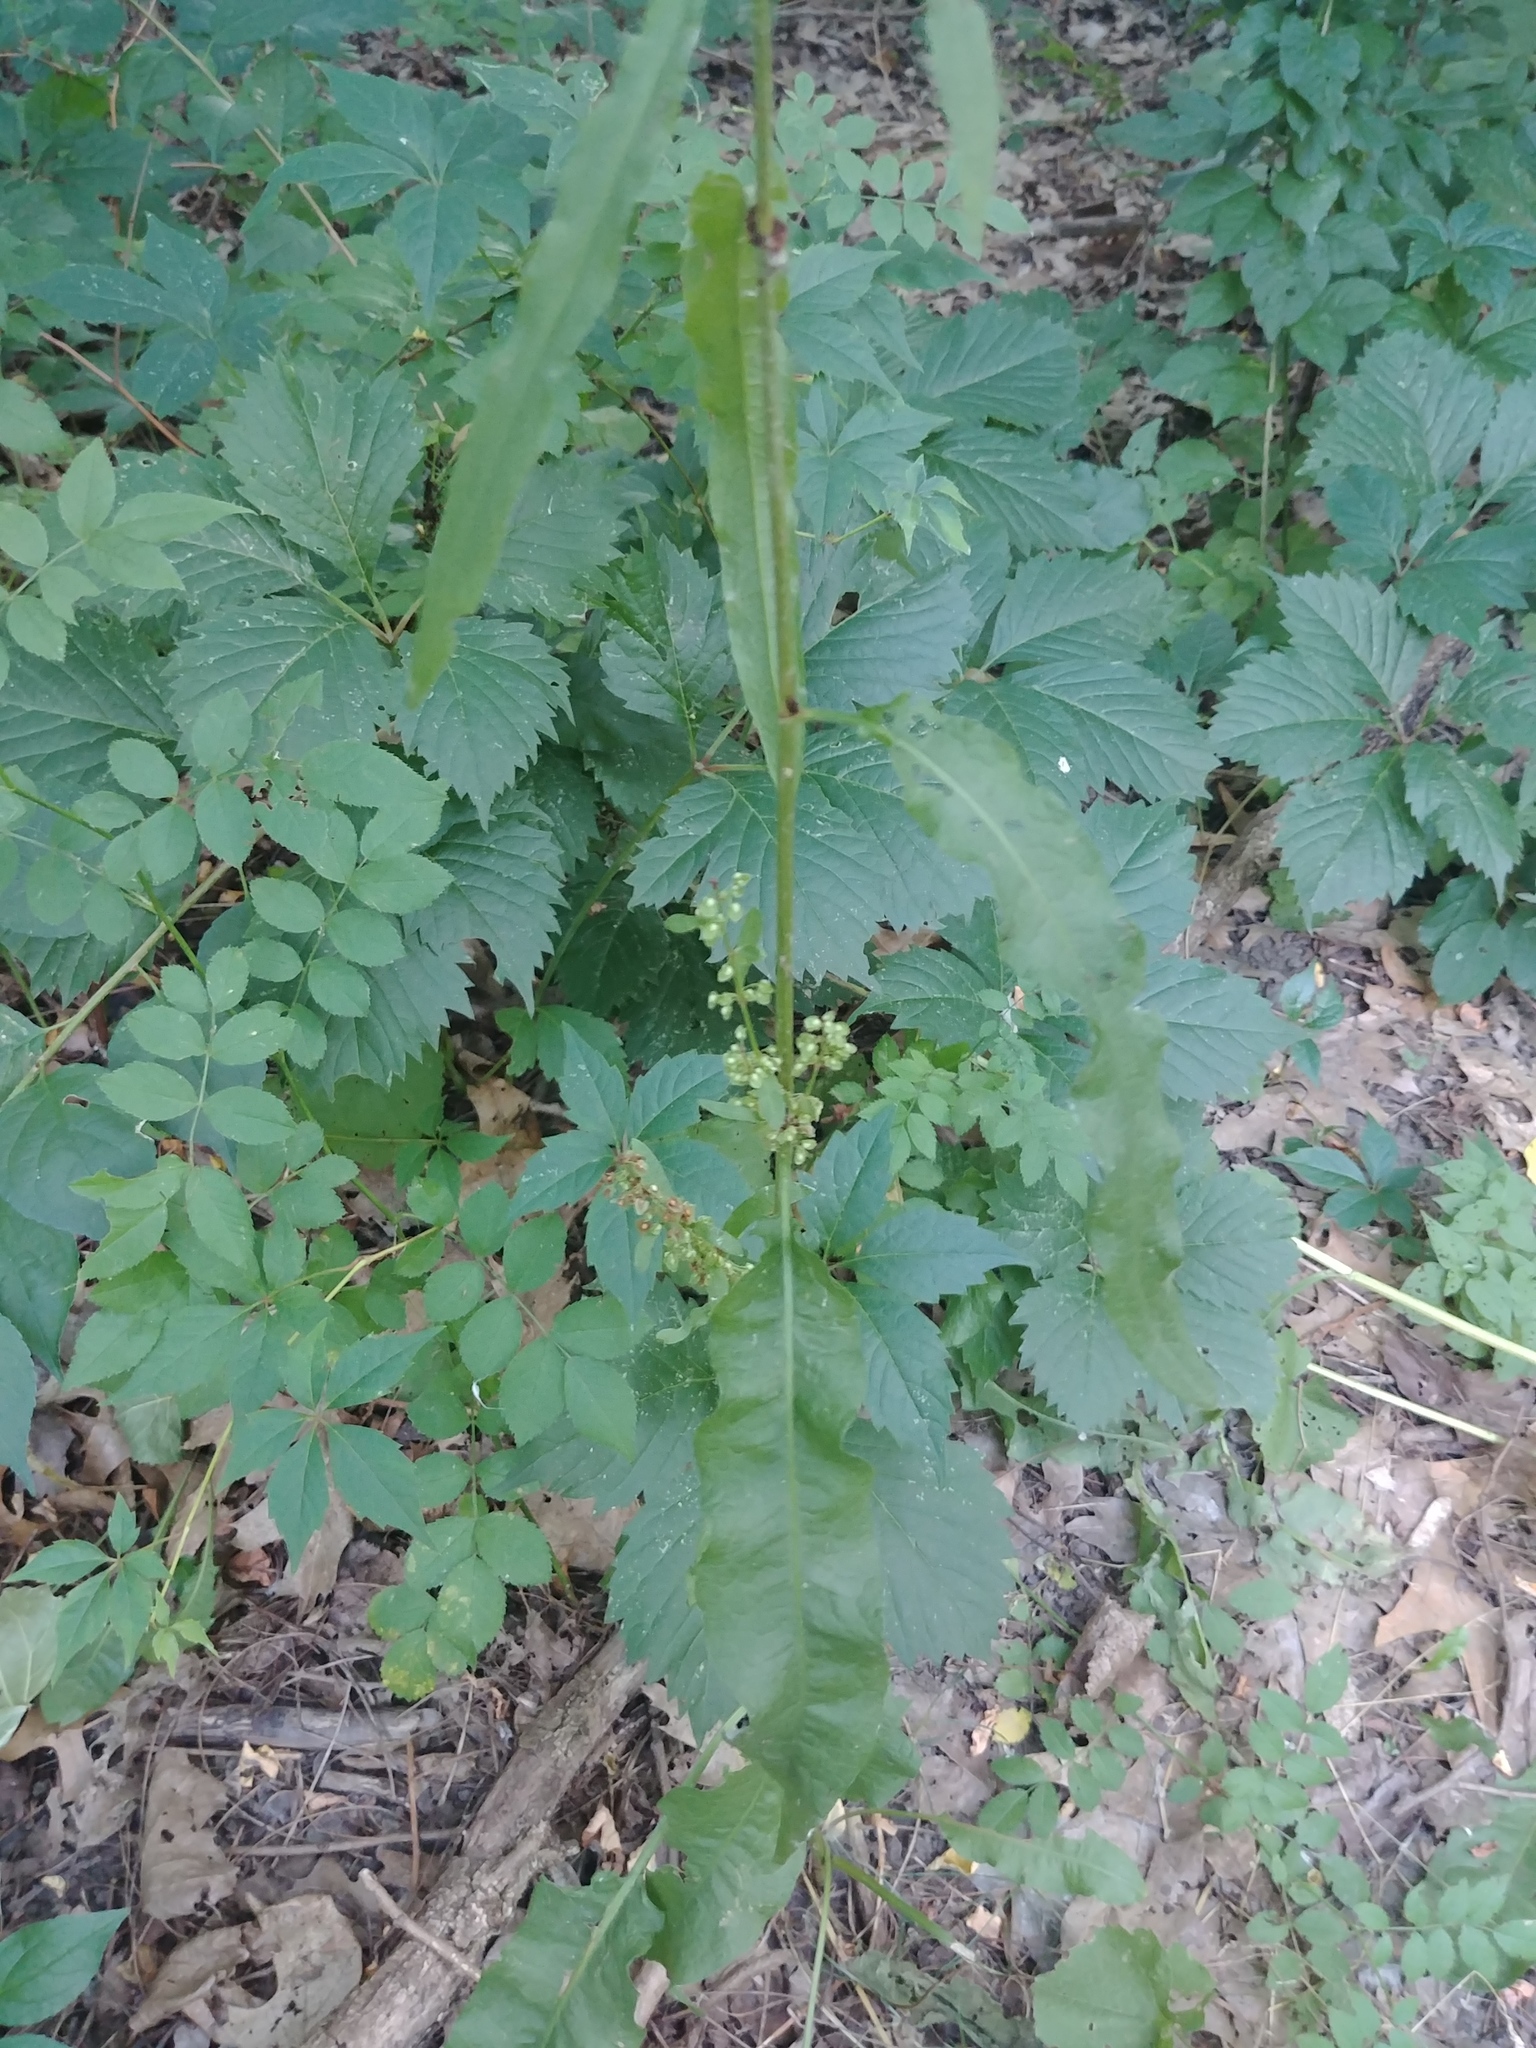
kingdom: Plantae
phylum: Tracheophyta
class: Magnoliopsida
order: Caryophyllales
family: Polygonaceae
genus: Rumex
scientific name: Rumex crispus
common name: Curled dock
